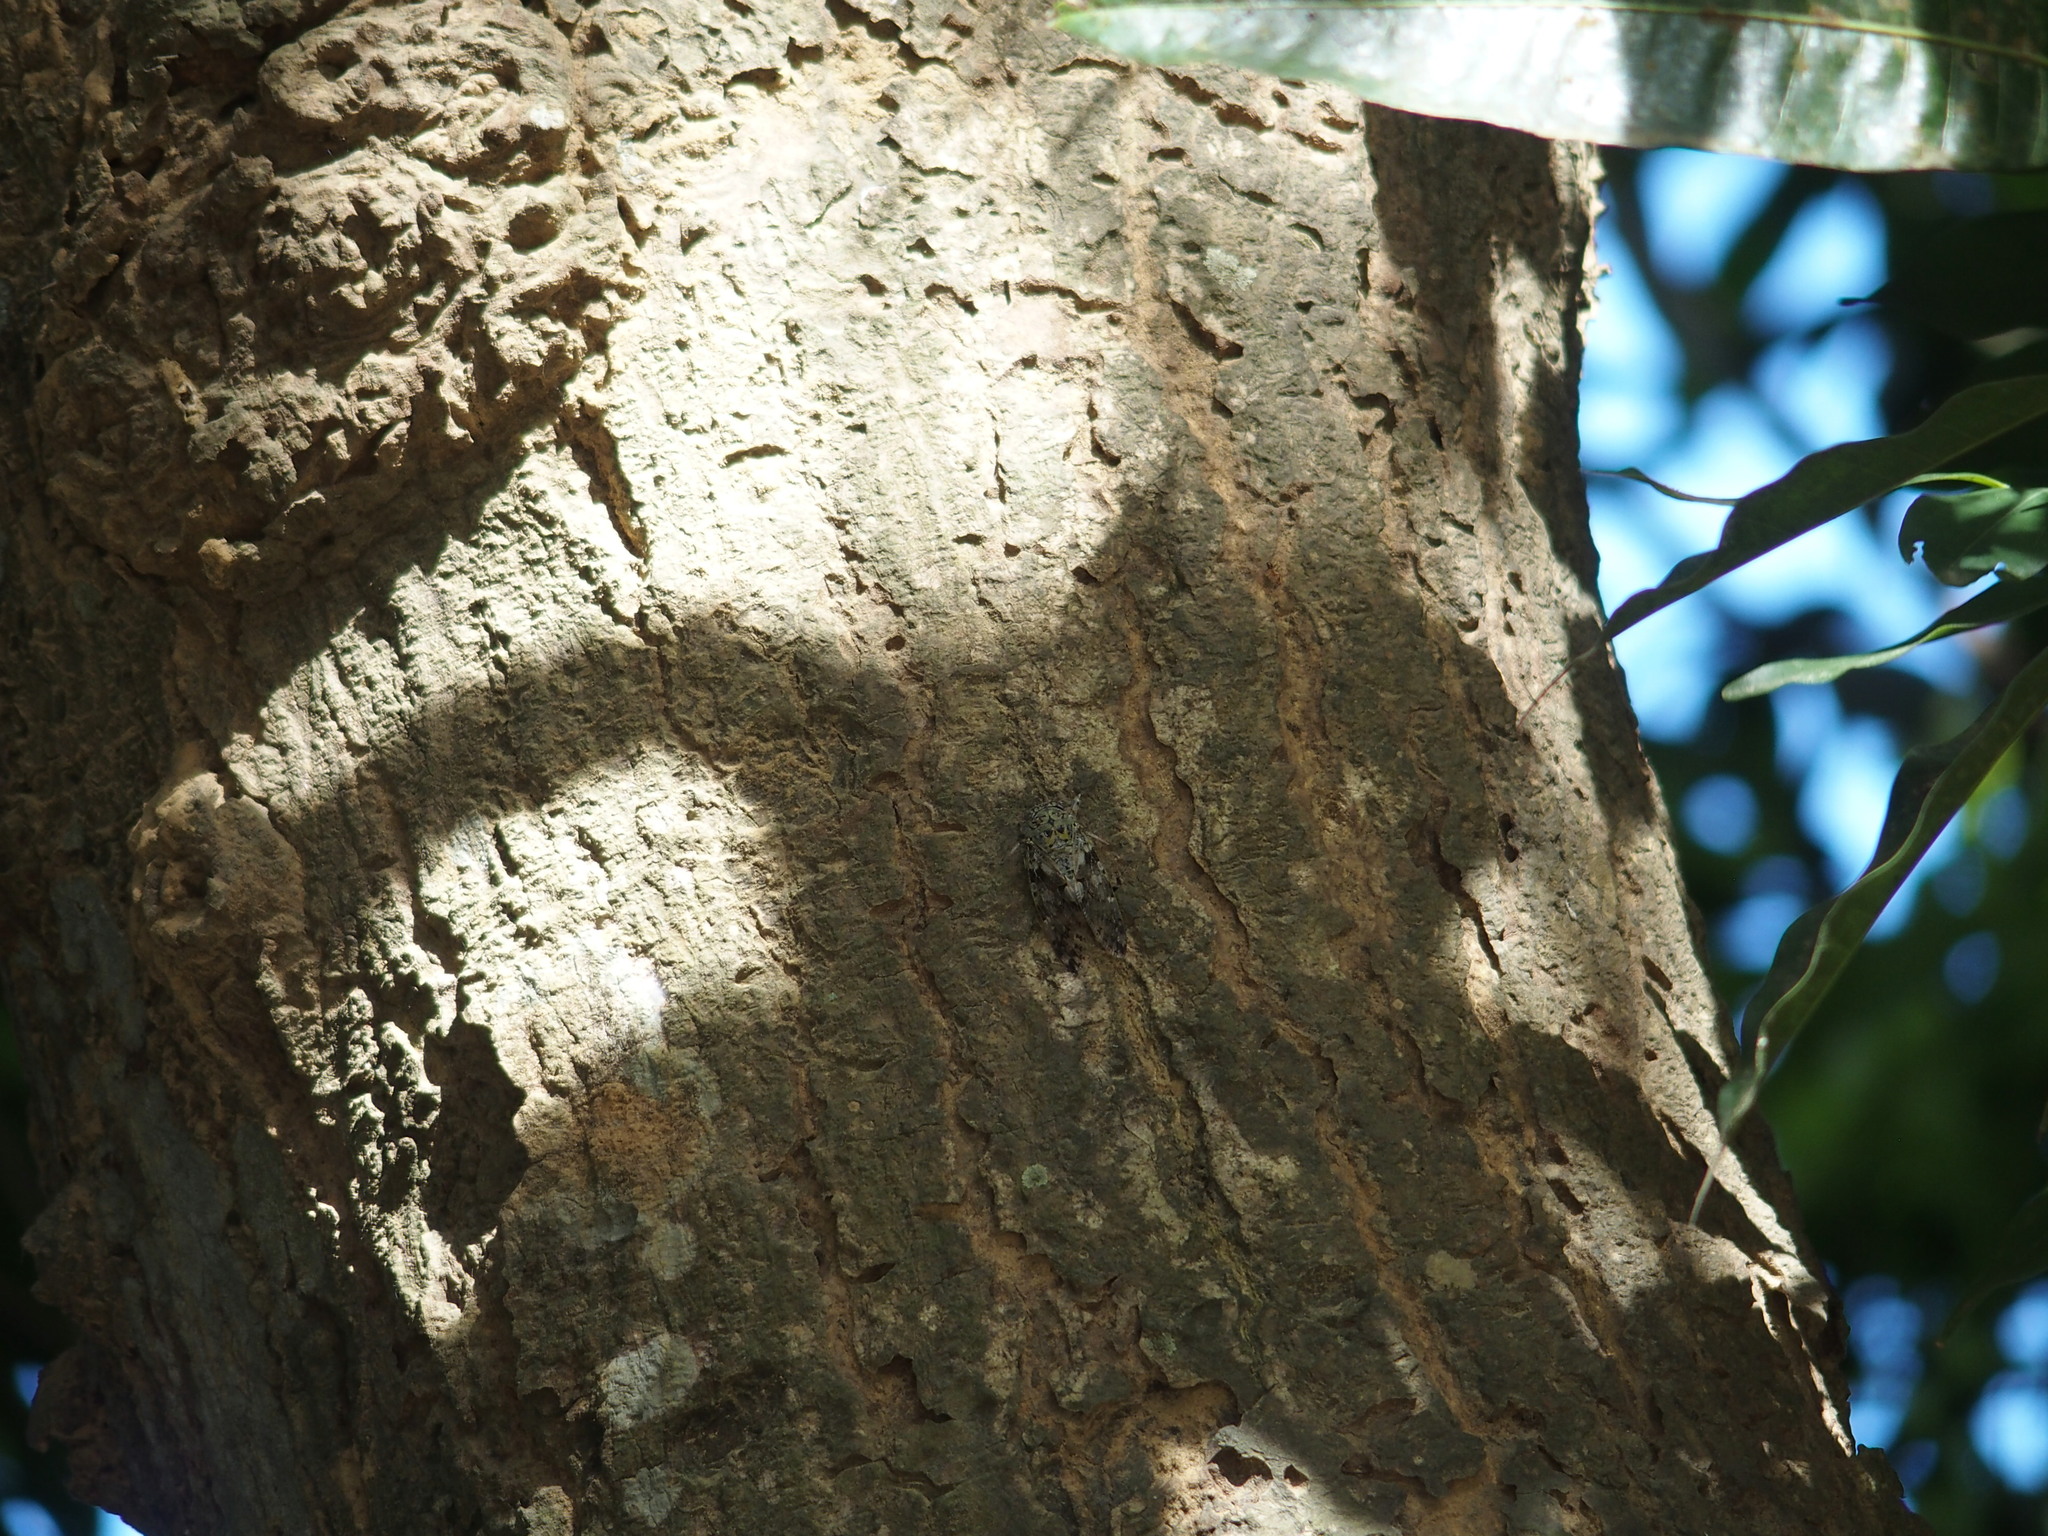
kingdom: Animalia
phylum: Arthropoda
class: Insecta
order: Hemiptera
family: Cicadidae
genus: Platypleura
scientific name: Platypleura takasagona
